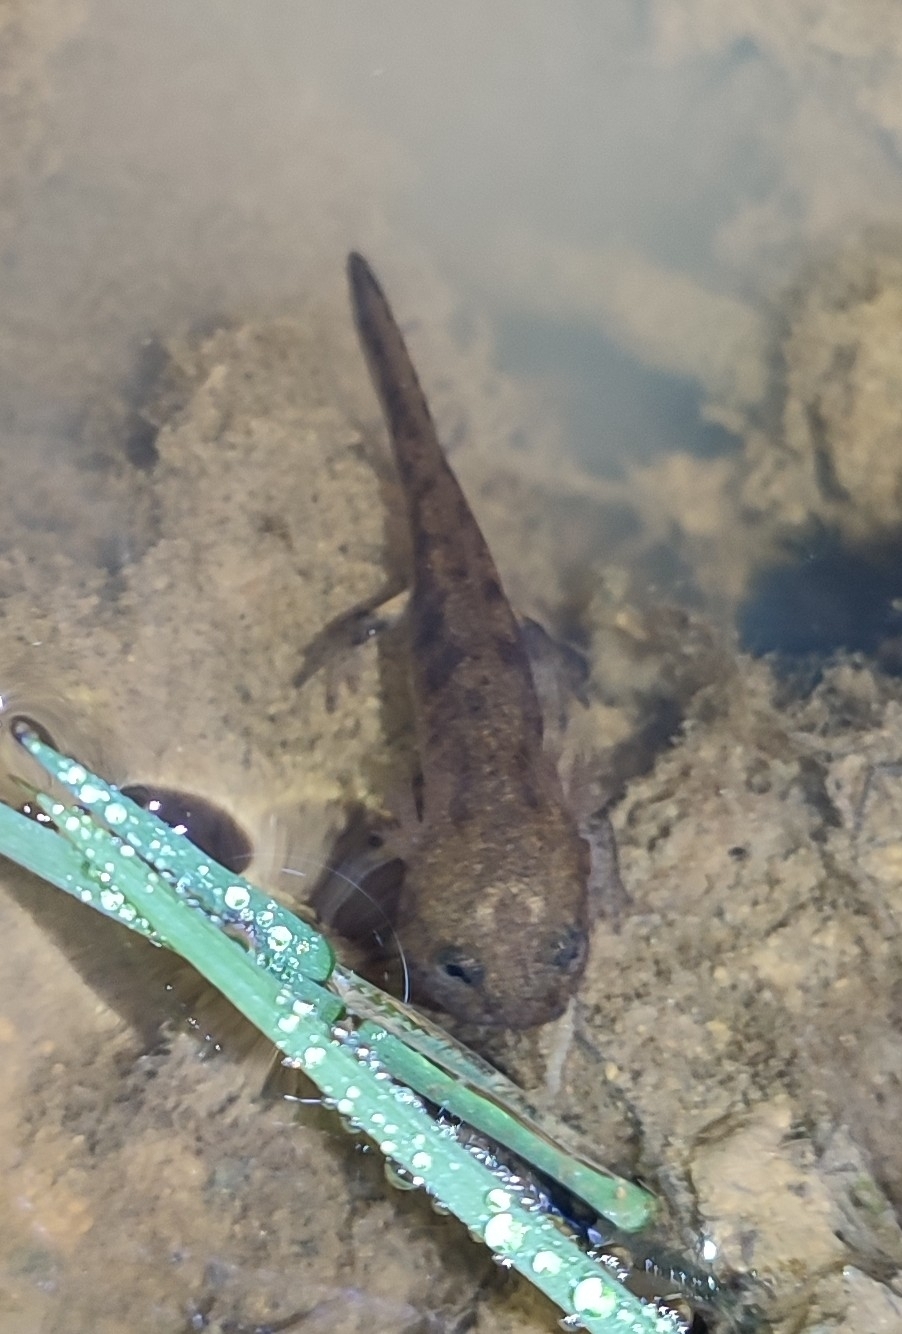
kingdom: Animalia
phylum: Chordata
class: Amphibia
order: Caudata
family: Salamandridae
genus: Salamandra
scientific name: Salamandra salamandra
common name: Fire salamander
